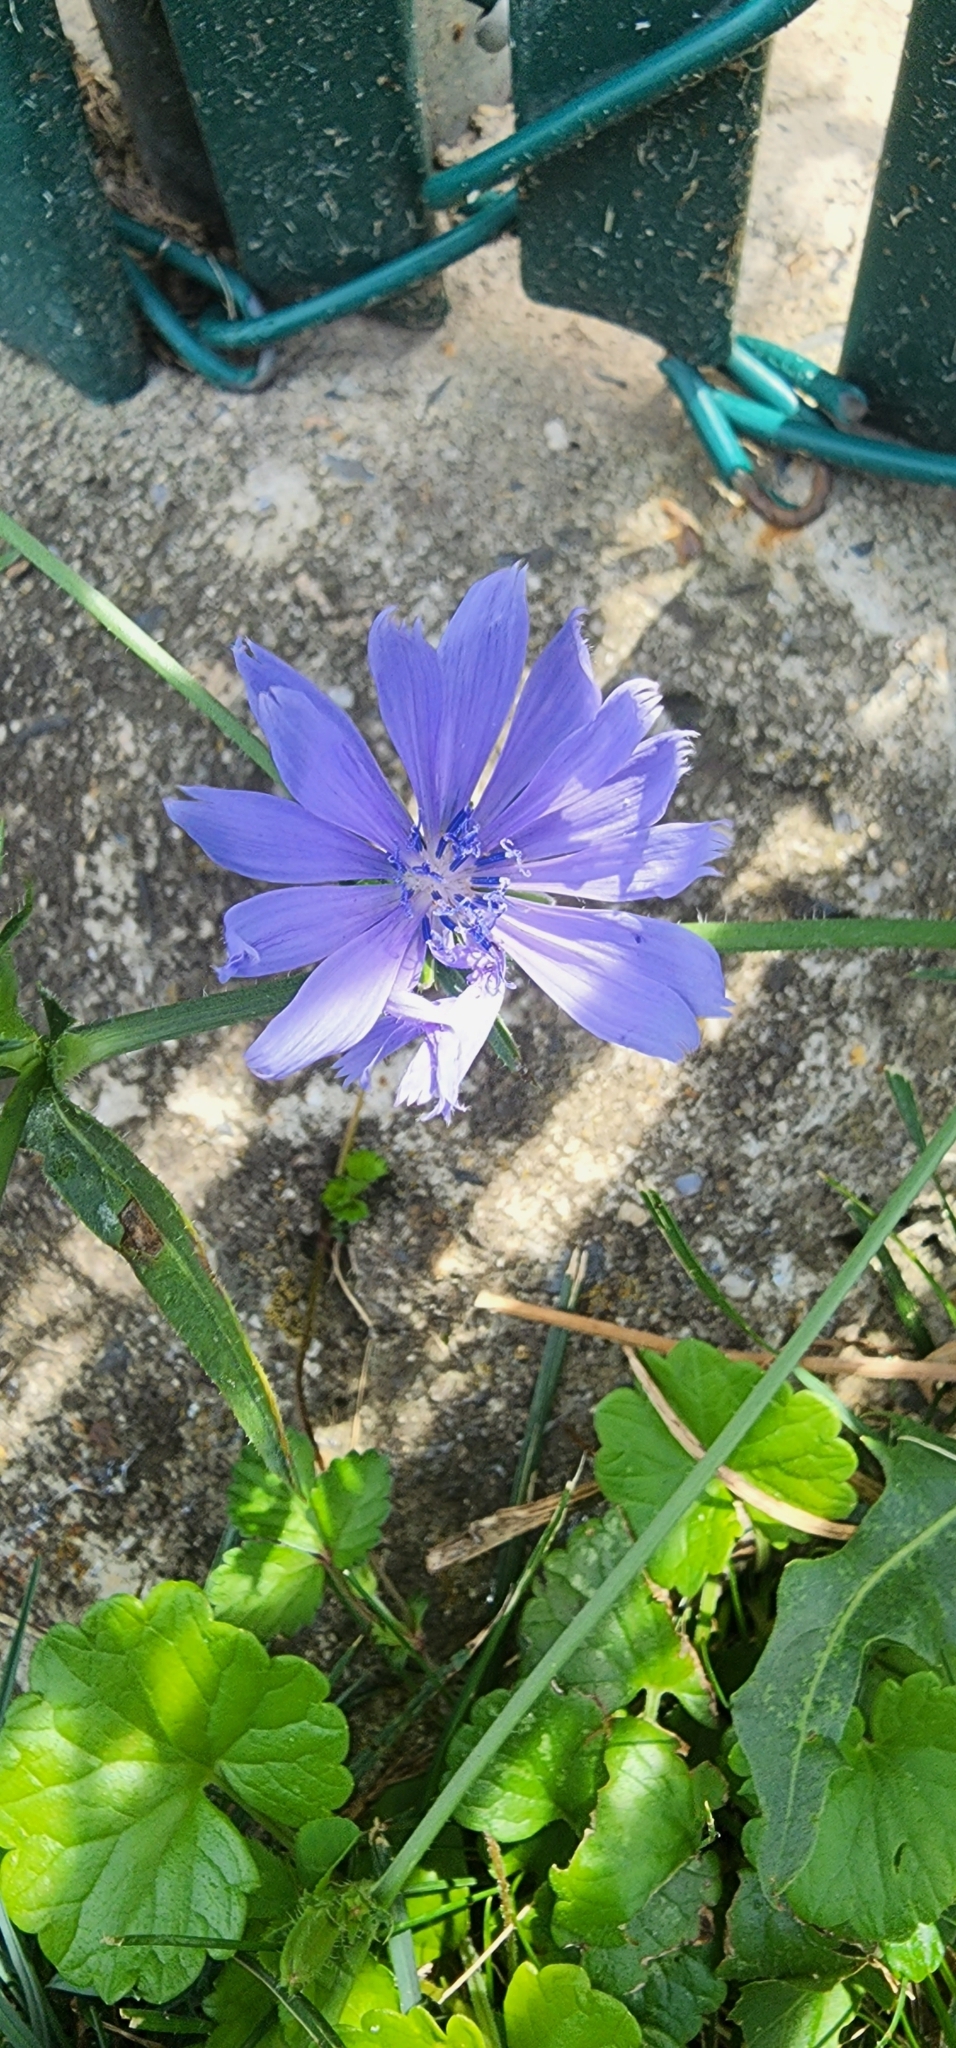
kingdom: Plantae
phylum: Tracheophyta
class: Magnoliopsida
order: Asterales
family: Asteraceae
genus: Cichorium
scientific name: Cichorium intybus
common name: Chicory
